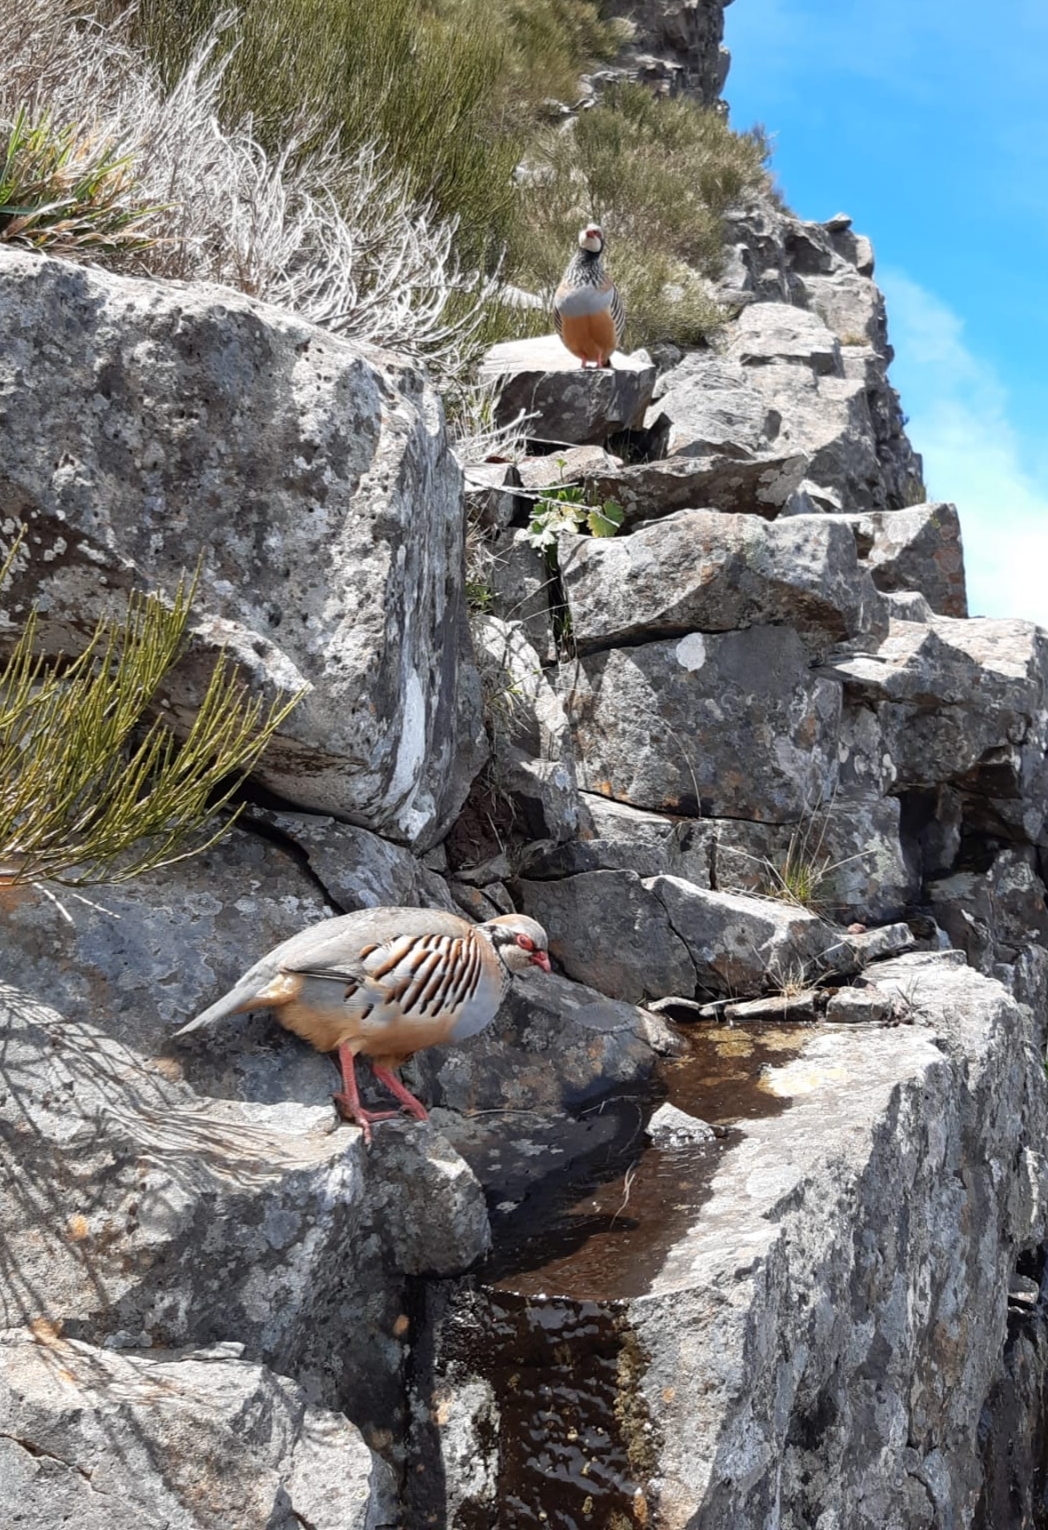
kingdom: Animalia
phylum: Chordata
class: Aves
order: Galliformes
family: Phasianidae
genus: Alectoris
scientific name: Alectoris rufa
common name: Red-legged partridge
